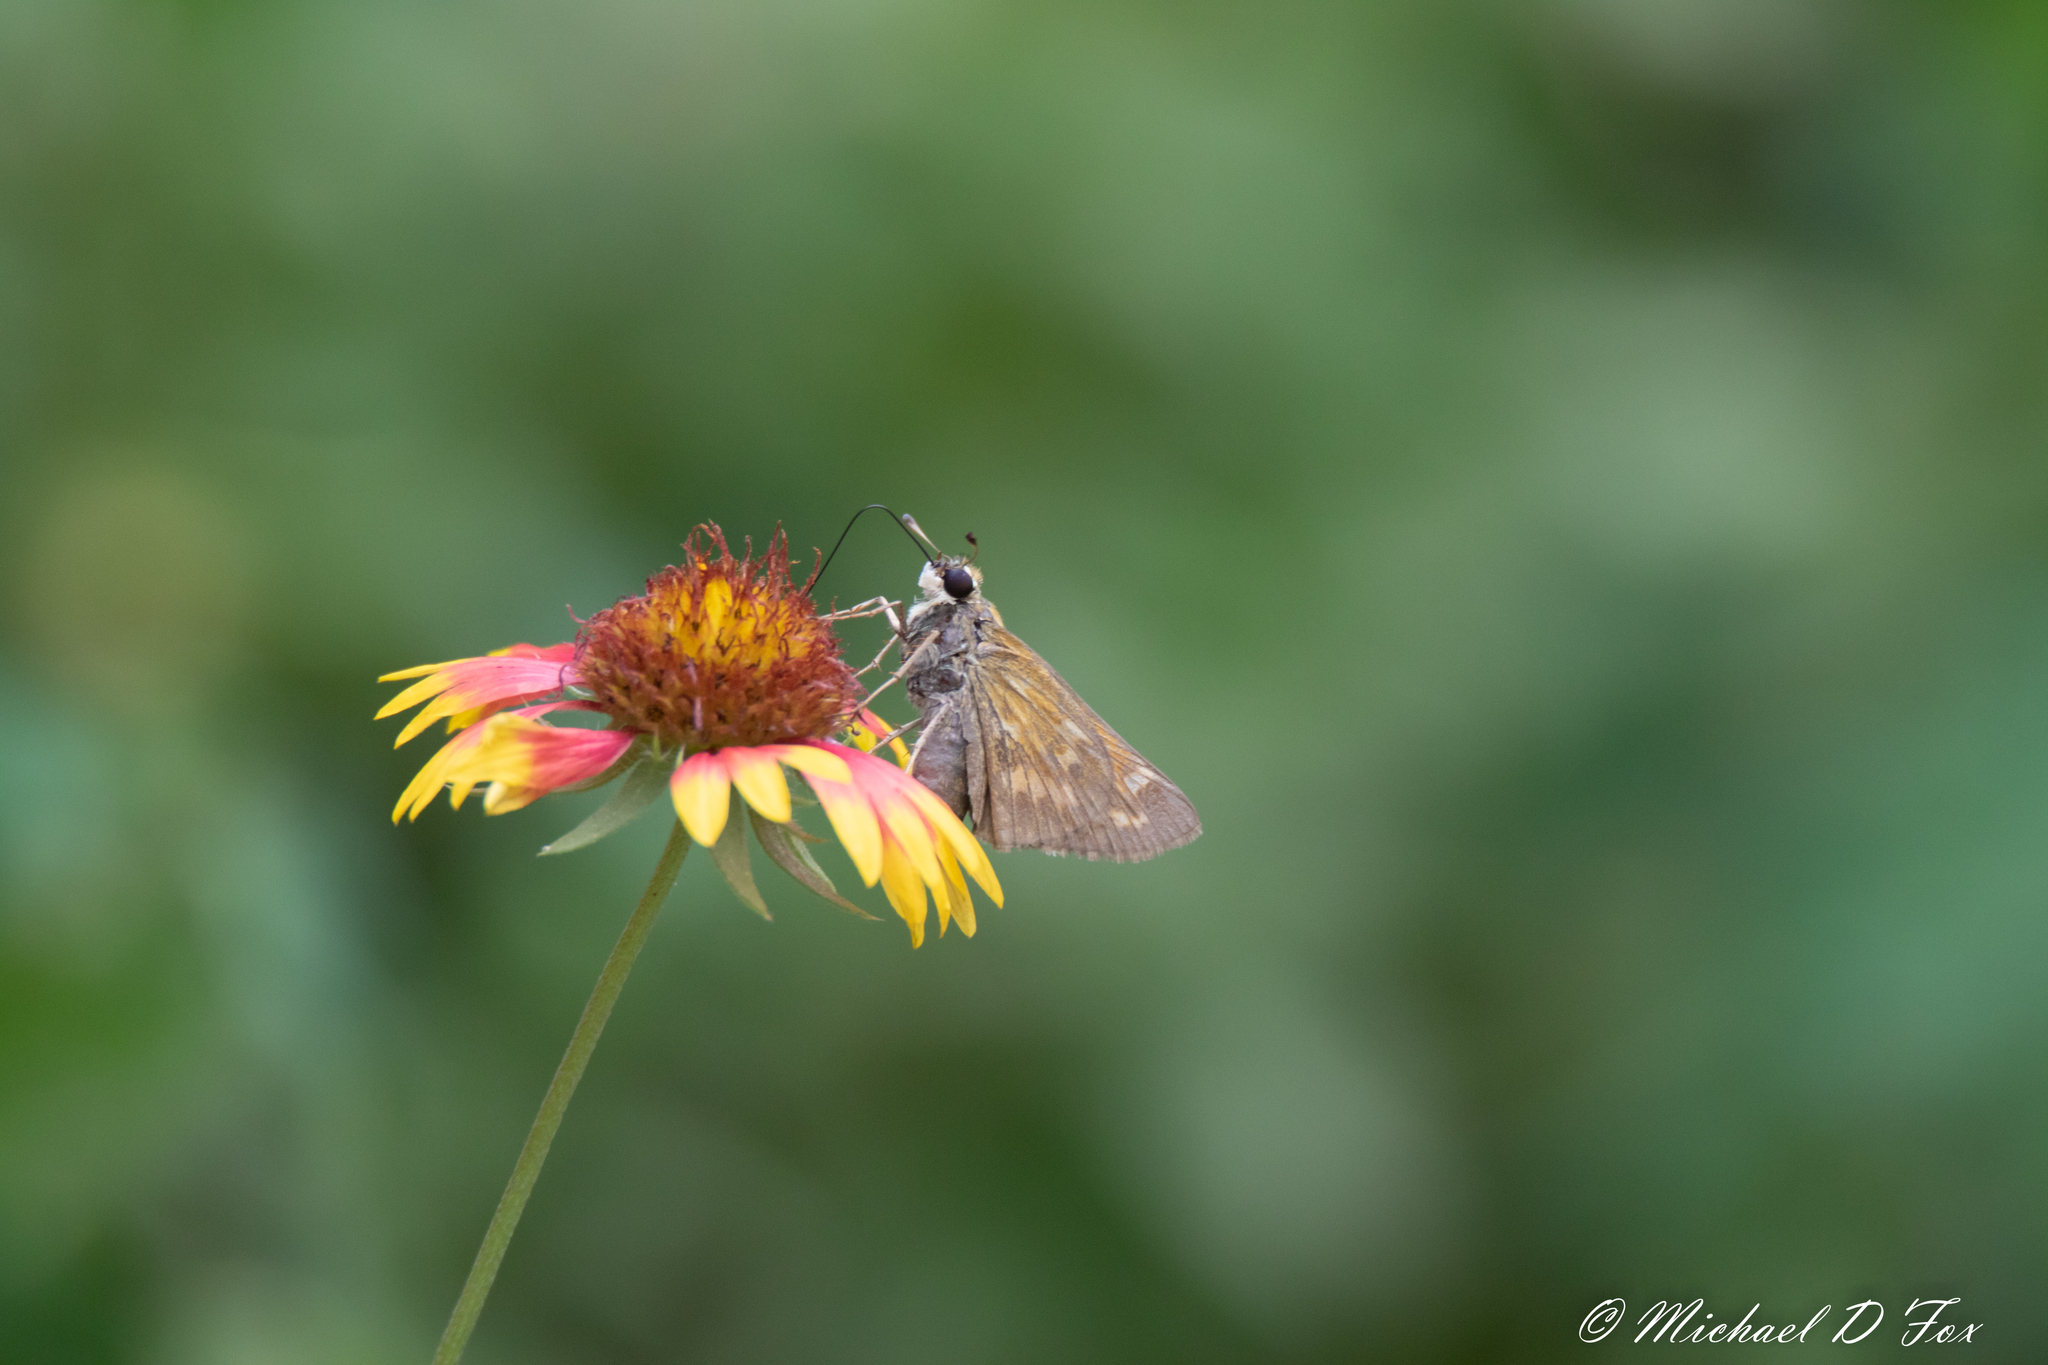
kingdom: Animalia
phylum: Arthropoda
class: Insecta
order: Lepidoptera
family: Hesperiidae
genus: Atalopedes
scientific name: Atalopedes
